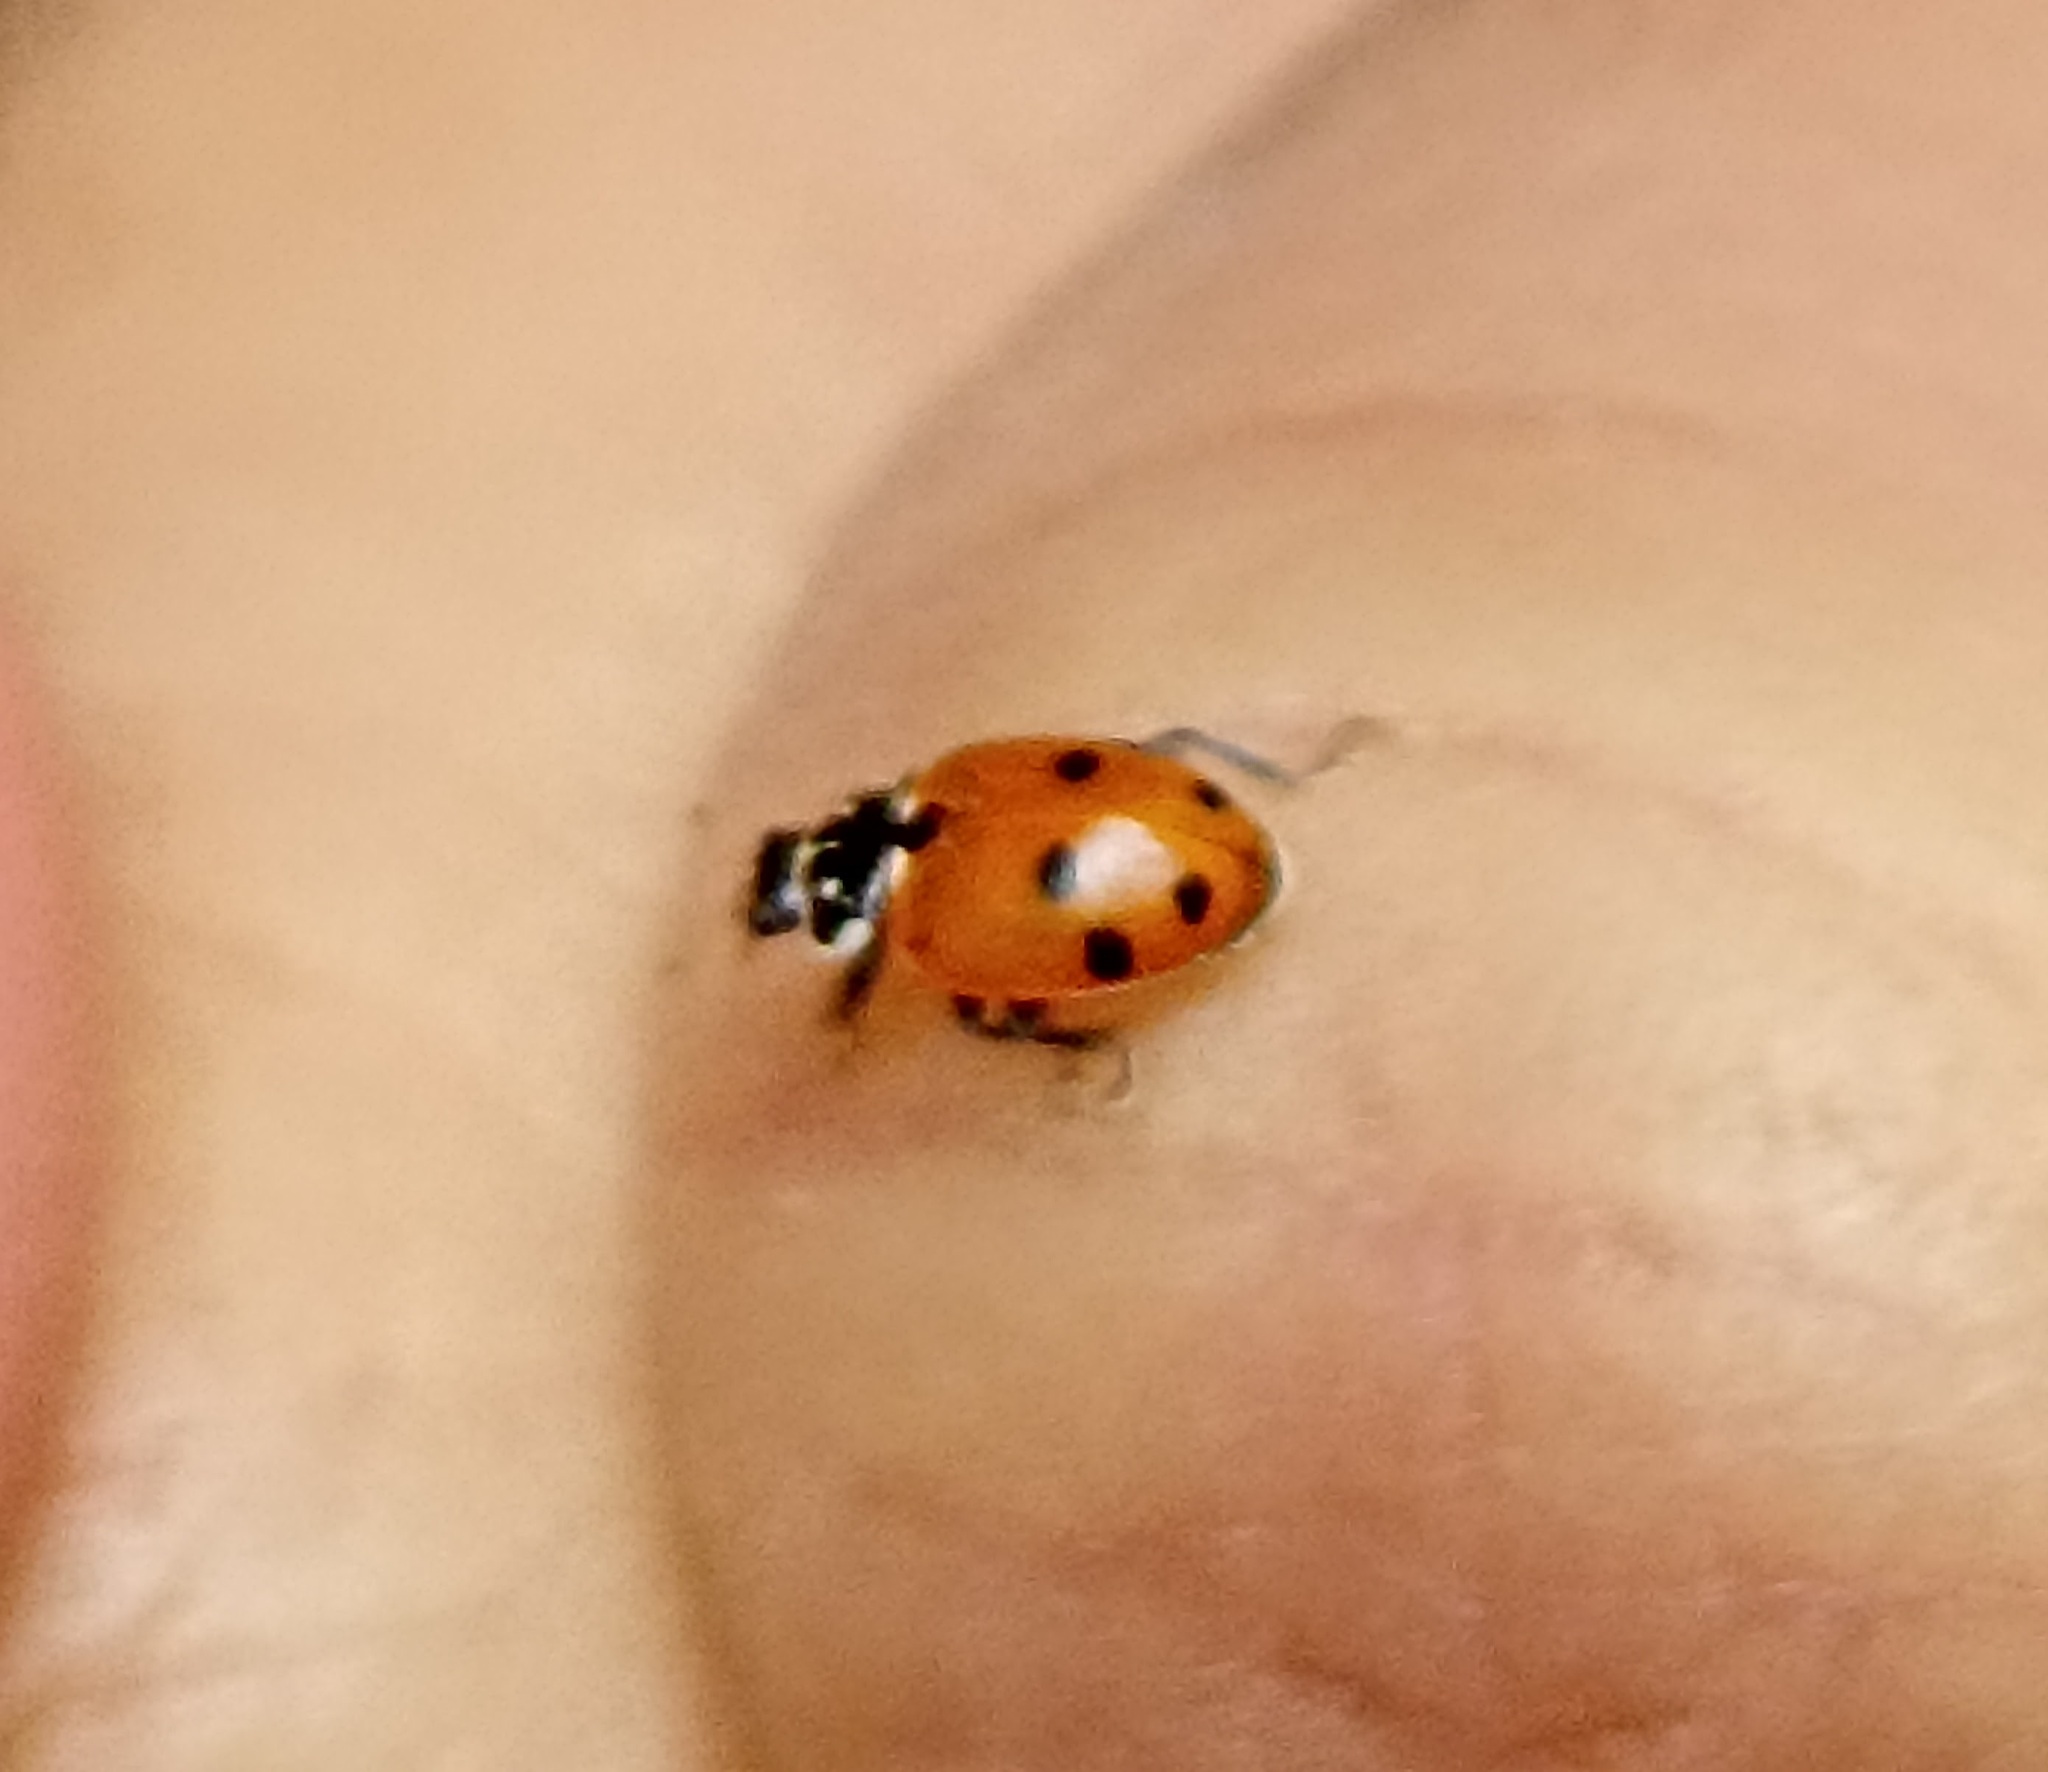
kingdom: Animalia
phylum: Arthropoda
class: Insecta
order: Coleoptera
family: Coccinellidae
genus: Hippodamia
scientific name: Hippodamia variegata
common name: Ladybird beetle
